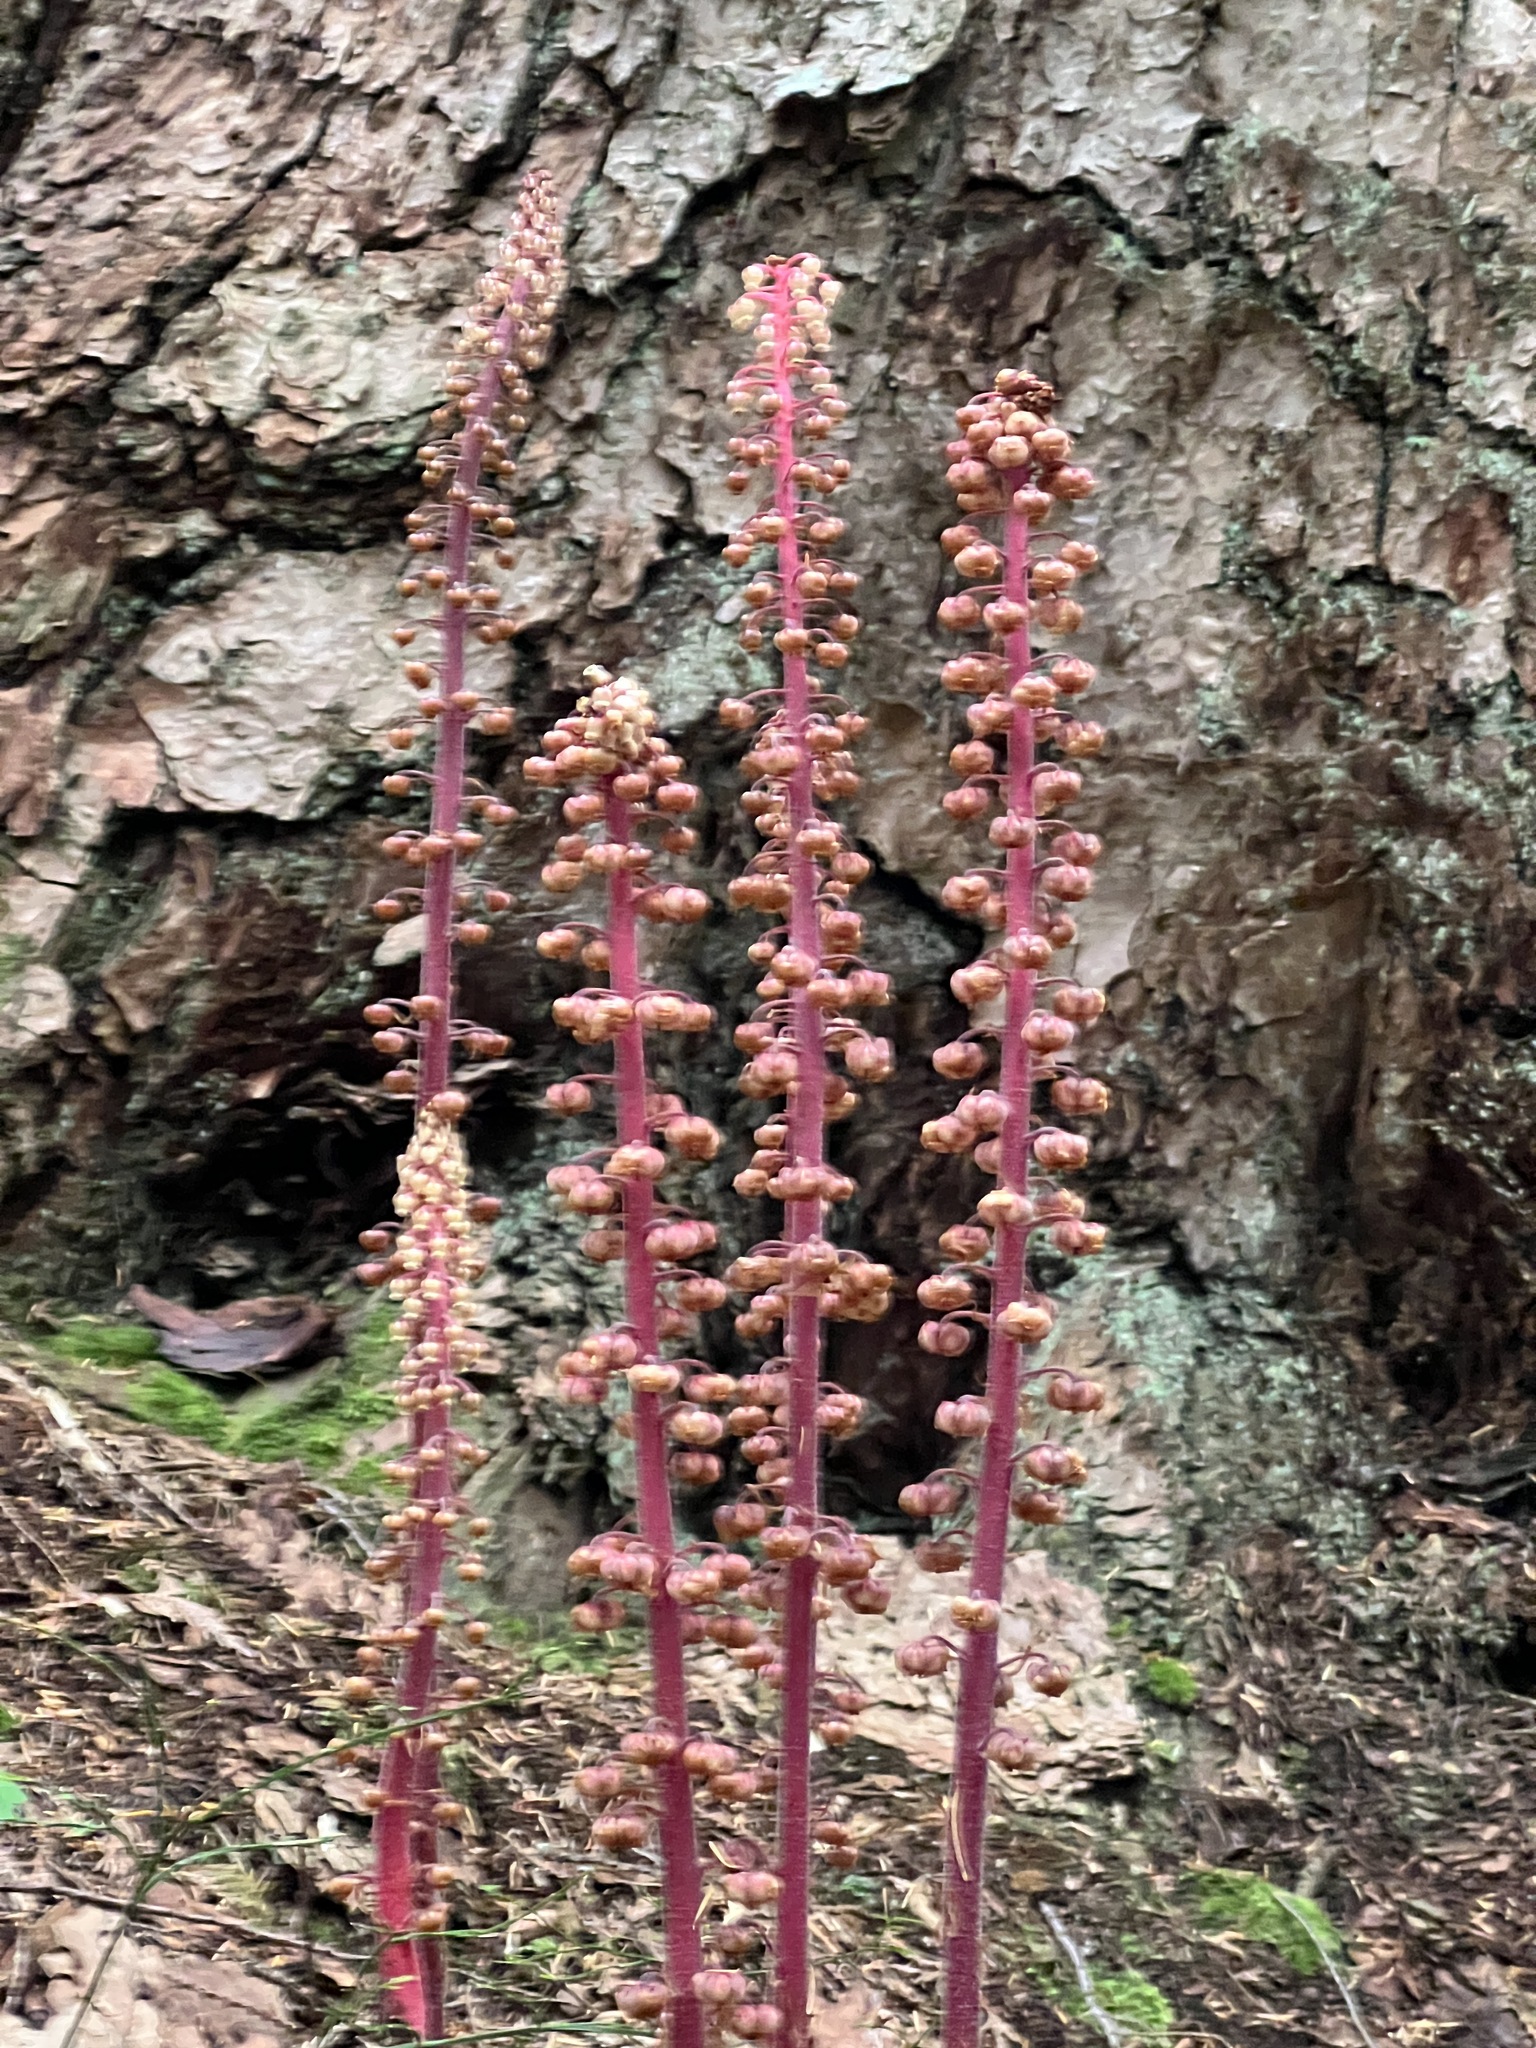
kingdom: Plantae
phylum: Tracheophyta
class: Magnoliopsida
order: Ericales
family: Ericaceae
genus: Pterospora
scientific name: Pterospora andromedea
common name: Giant bird's-nest
